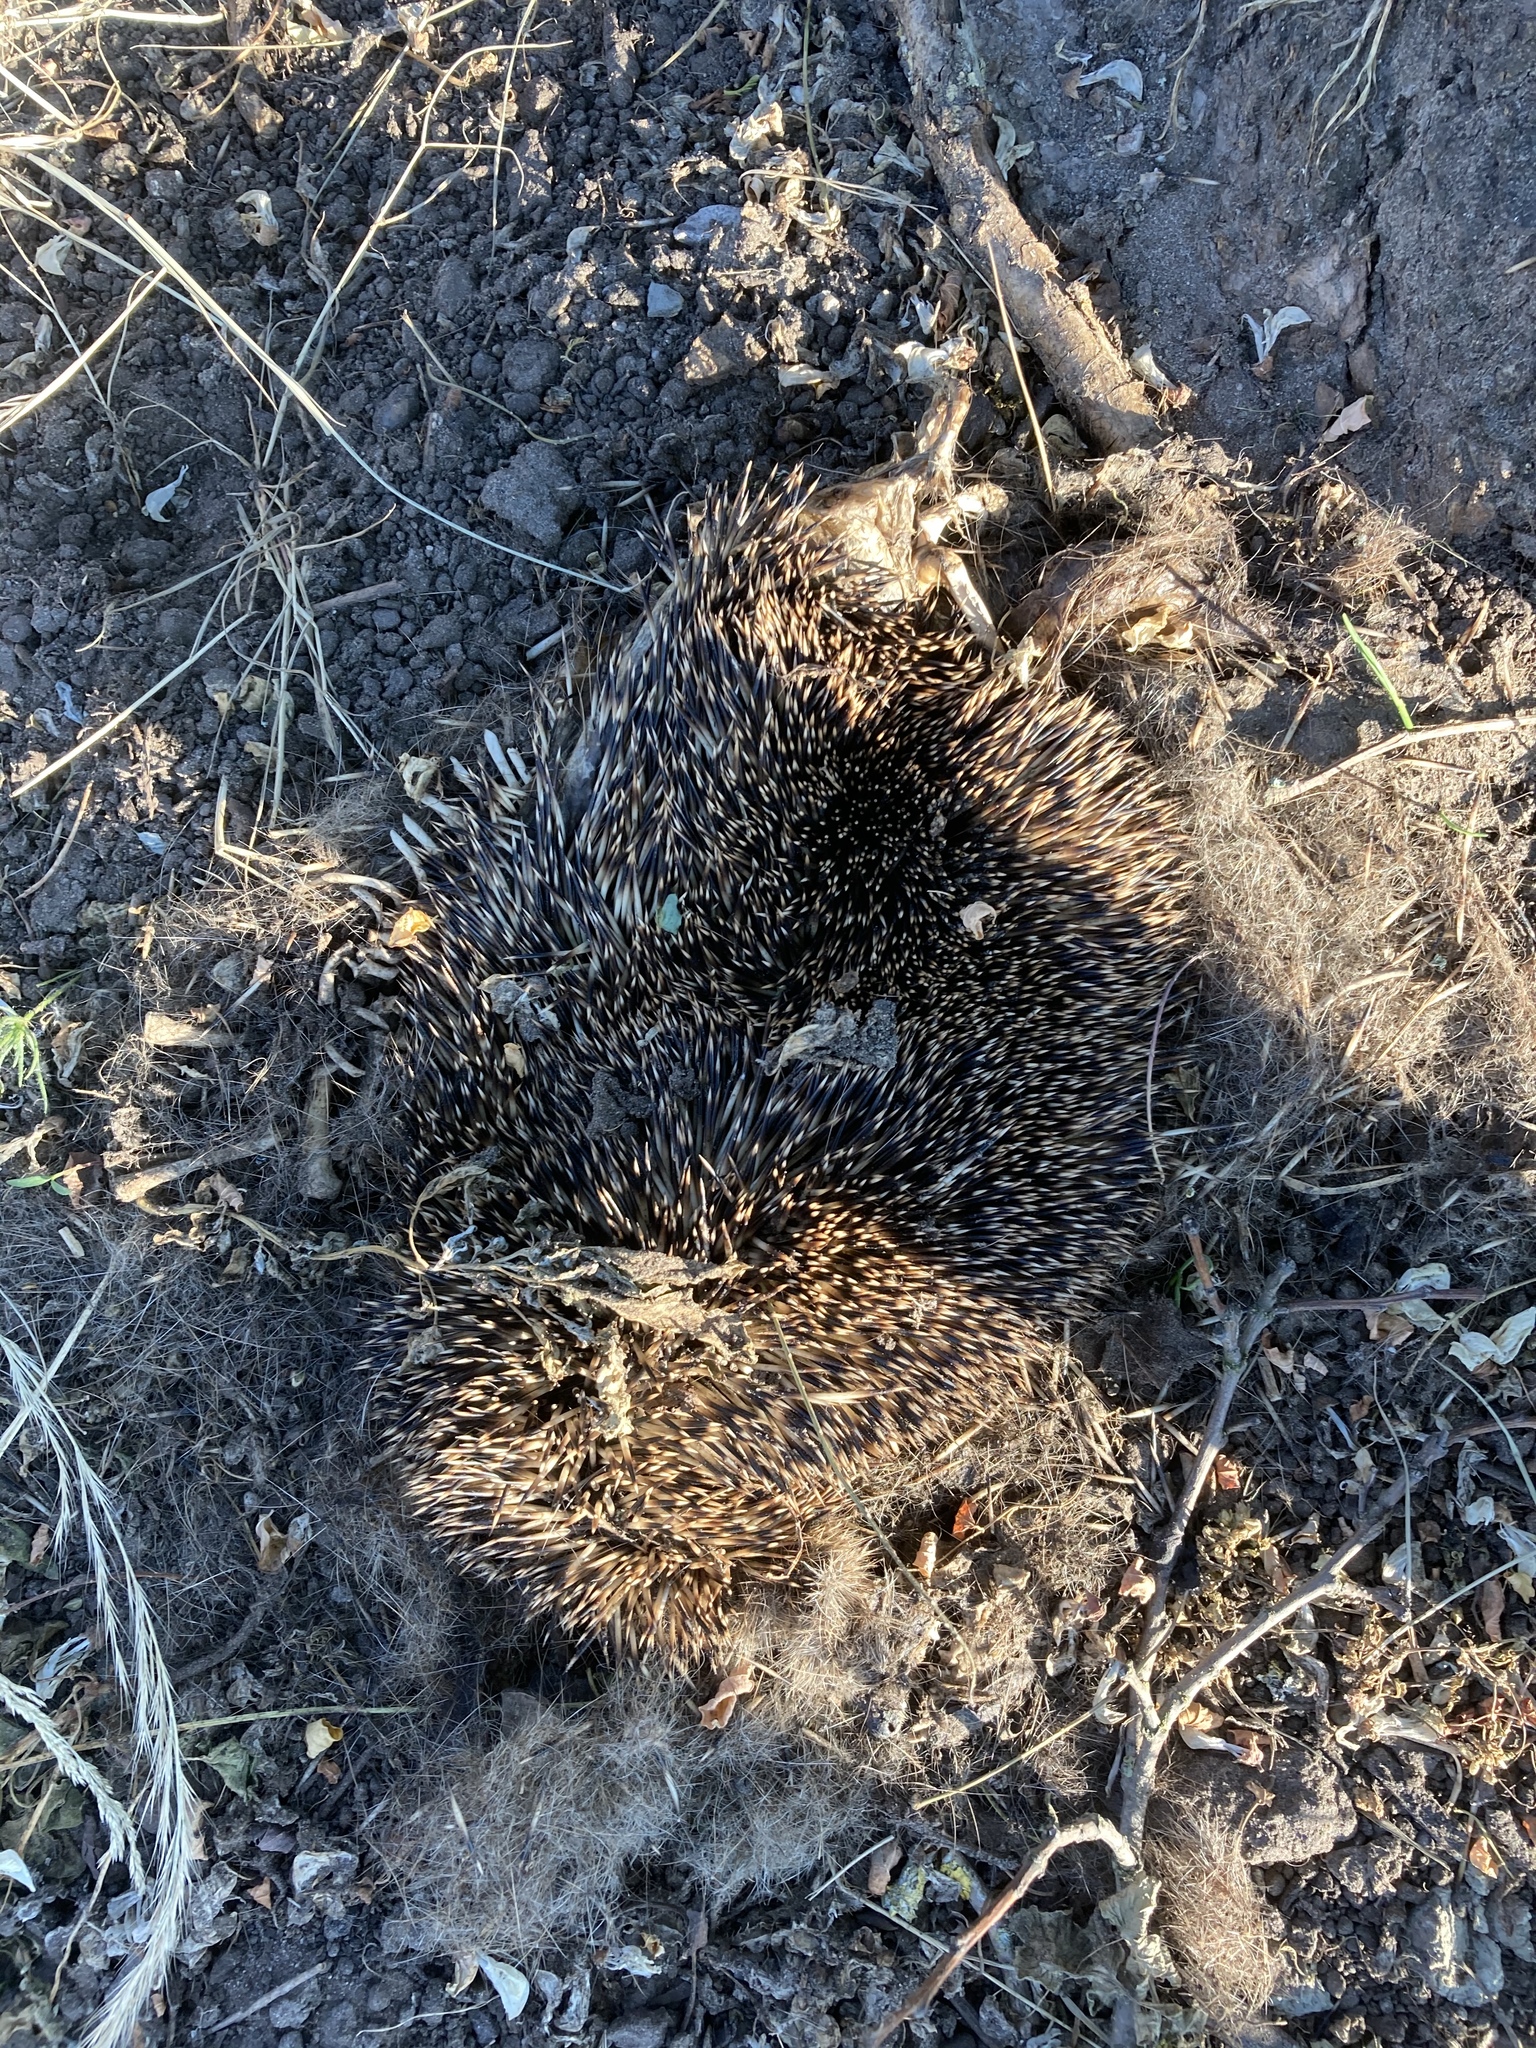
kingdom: Animalia
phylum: Chordata
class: Mammalia
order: Erinaceomorpha
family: Erinaceidae
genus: Erinaceus
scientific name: Erinaceus europaeus
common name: West european hedgehog
